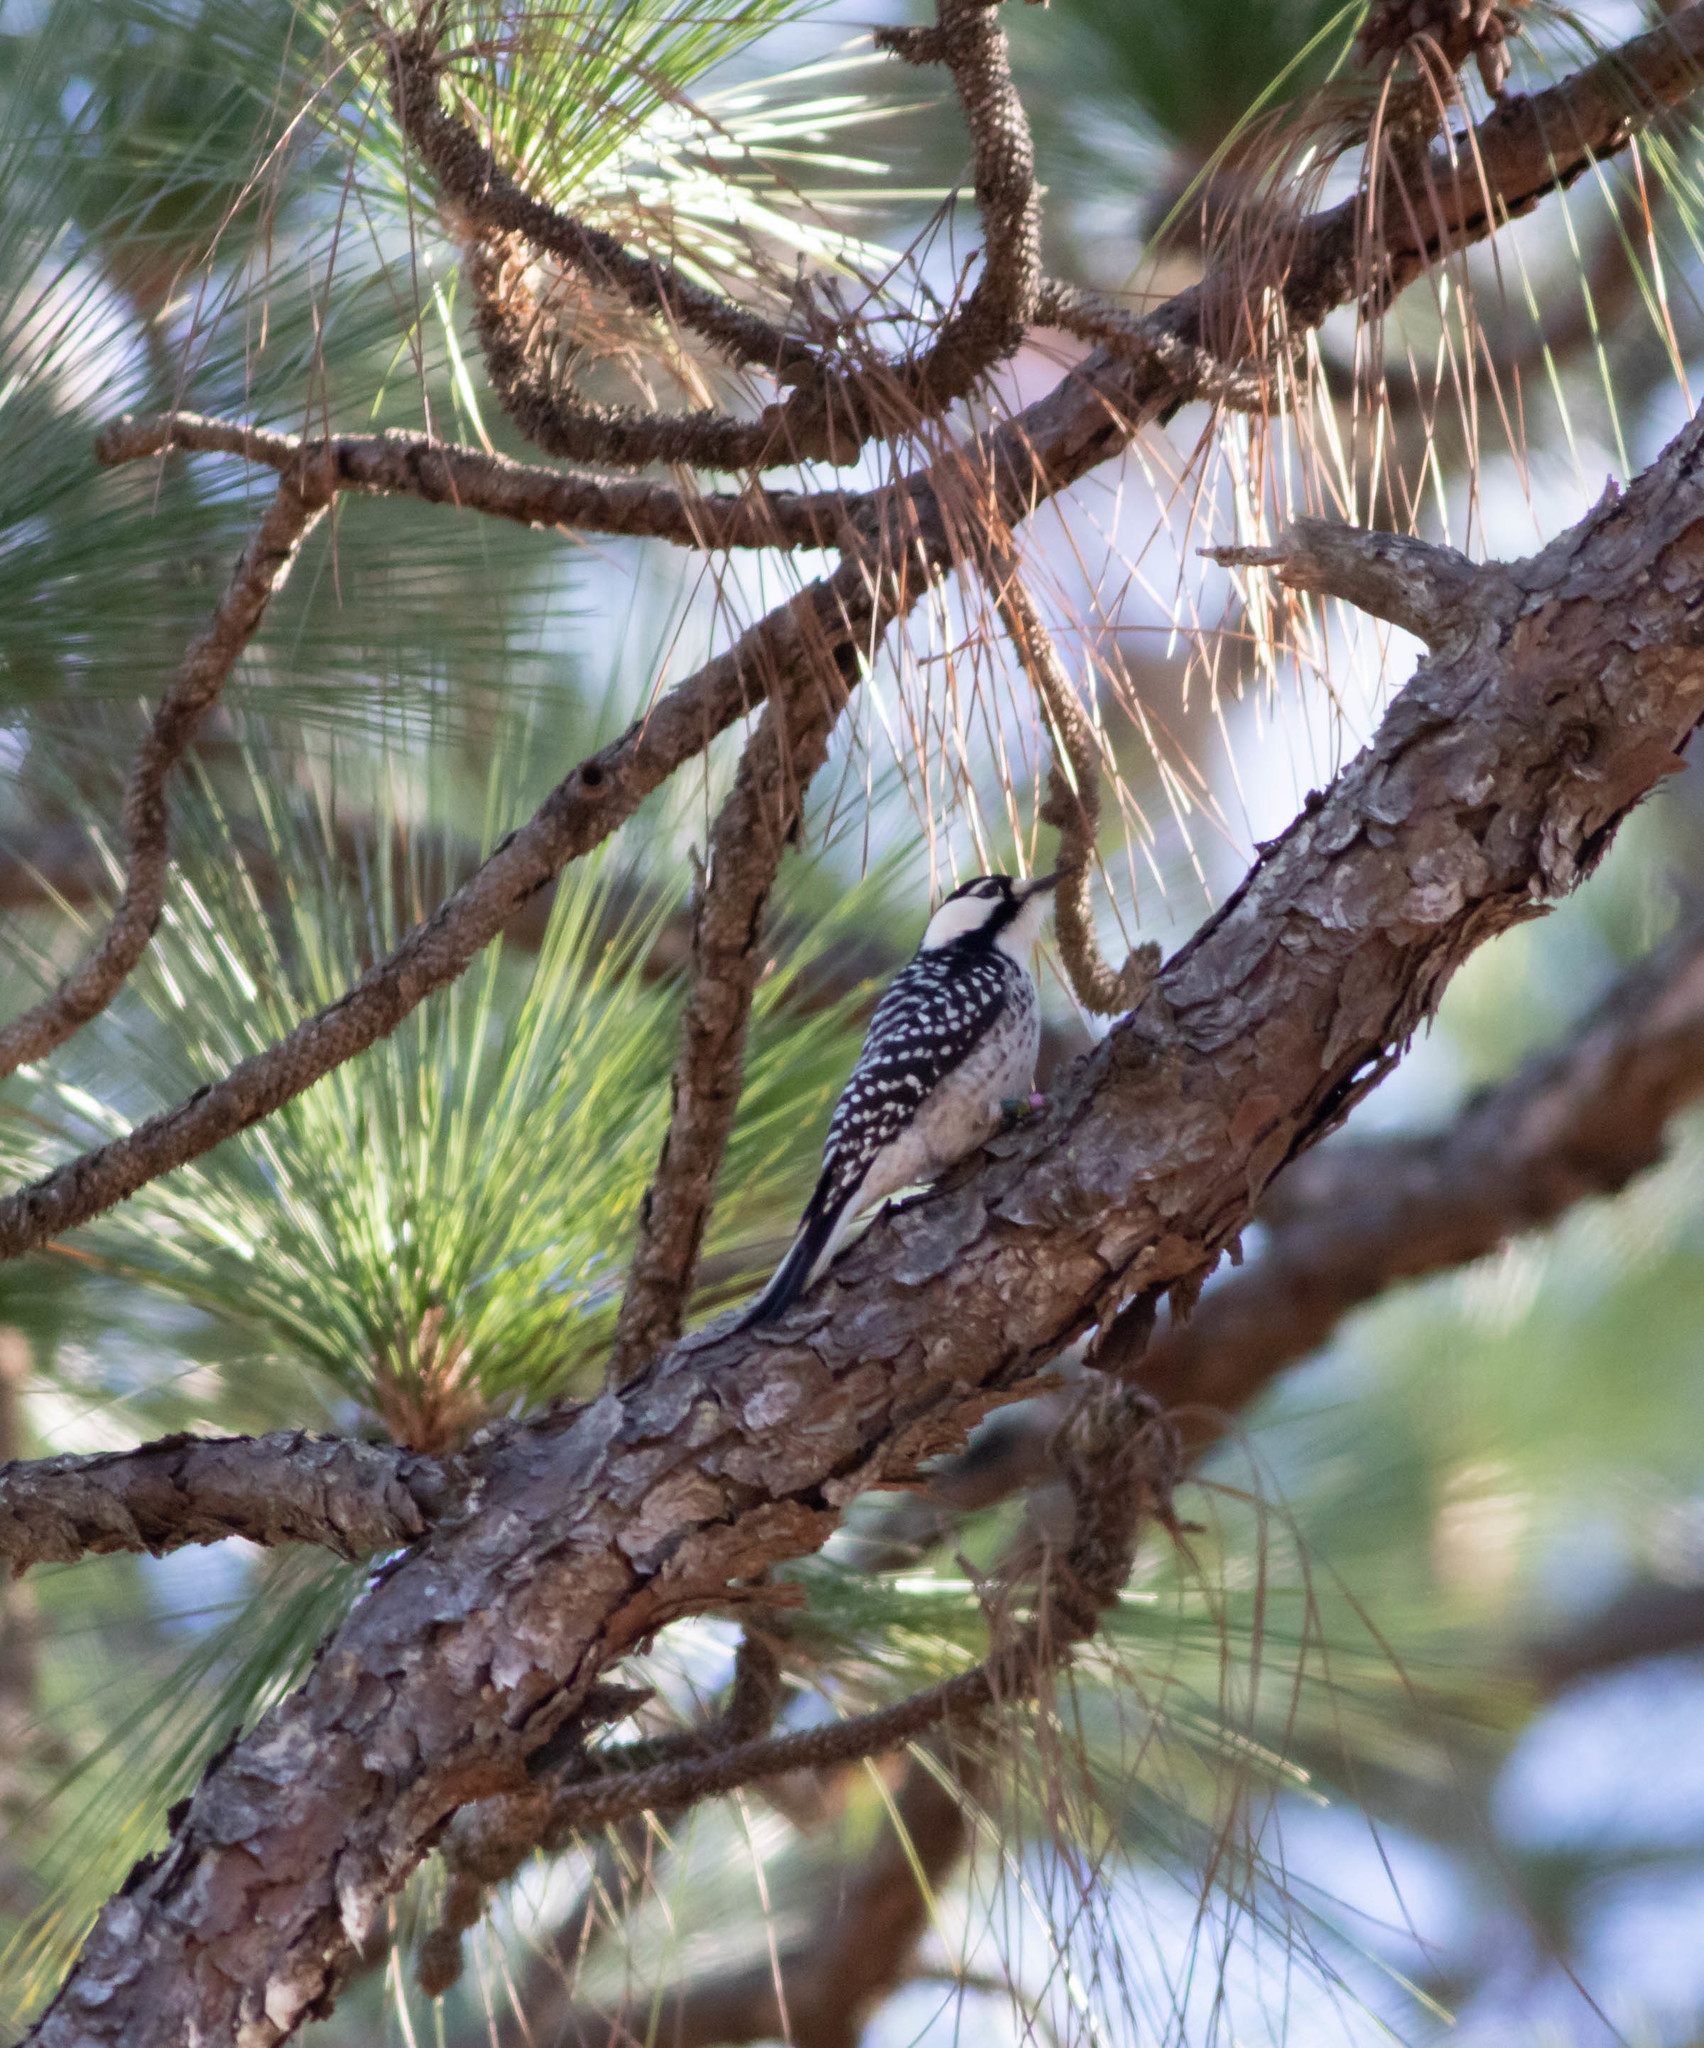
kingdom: Animalia
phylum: Chordata
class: Aves
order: Piciformes
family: Picidae
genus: Leuconotopicus
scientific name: Leuconotopicus borealis
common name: Red-cockaded woodpecker
